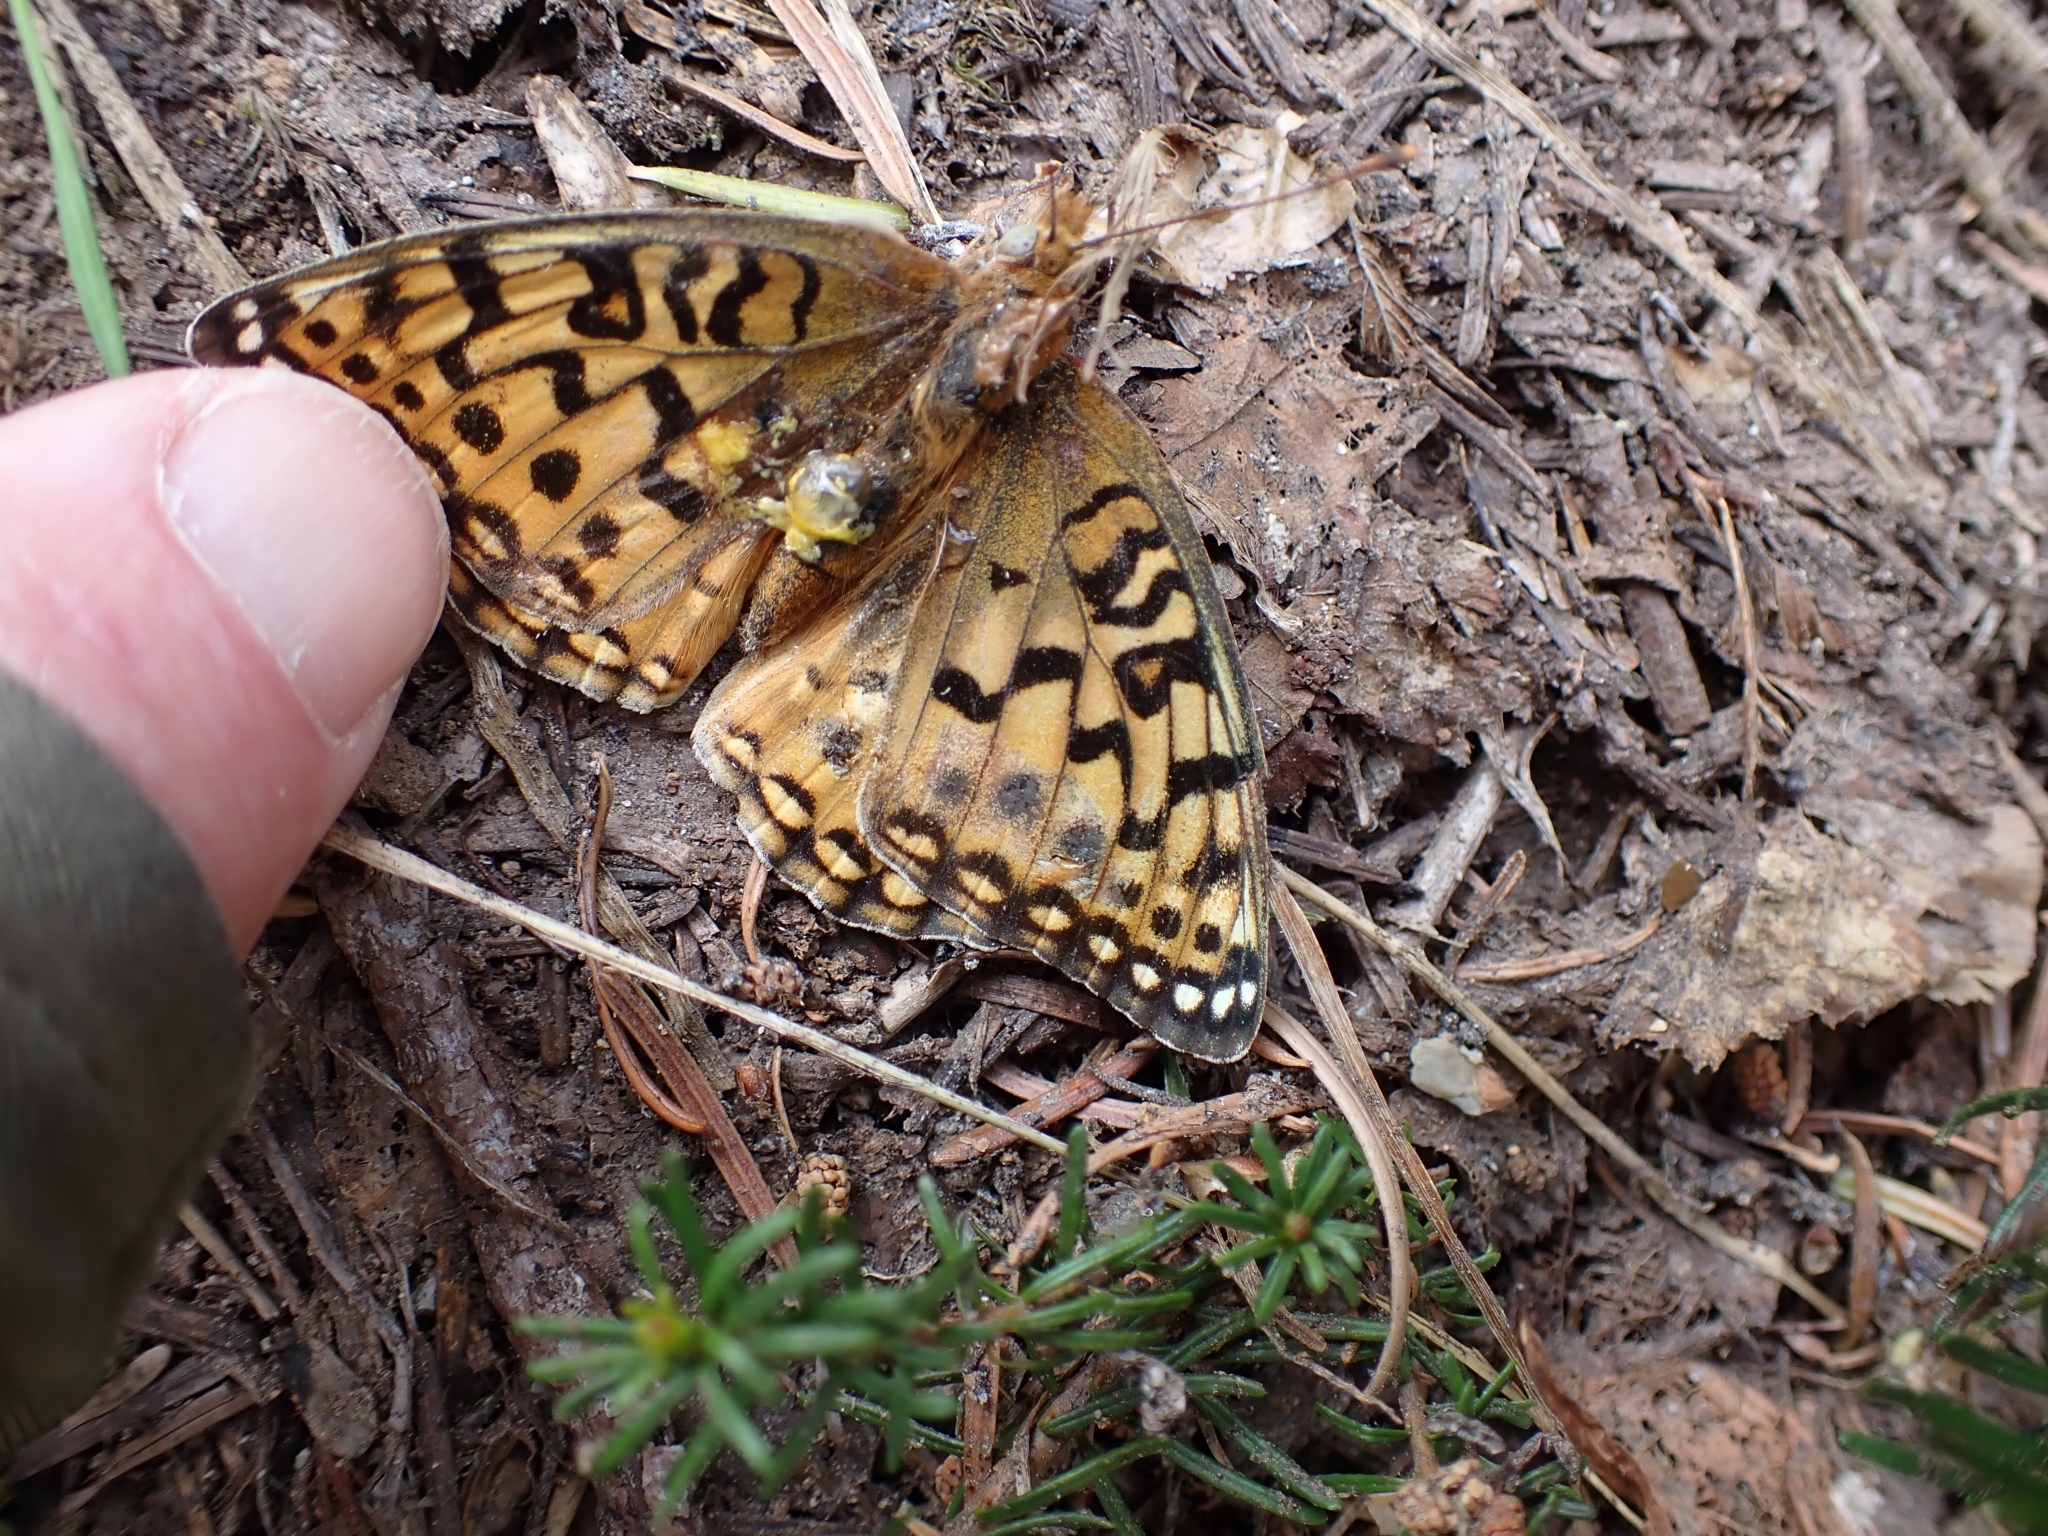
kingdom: Animalia
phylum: Arthropoda
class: Insecta
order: Lepidoptera
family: Nymphalidae
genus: Argynnis
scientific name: Argynnis coronis
